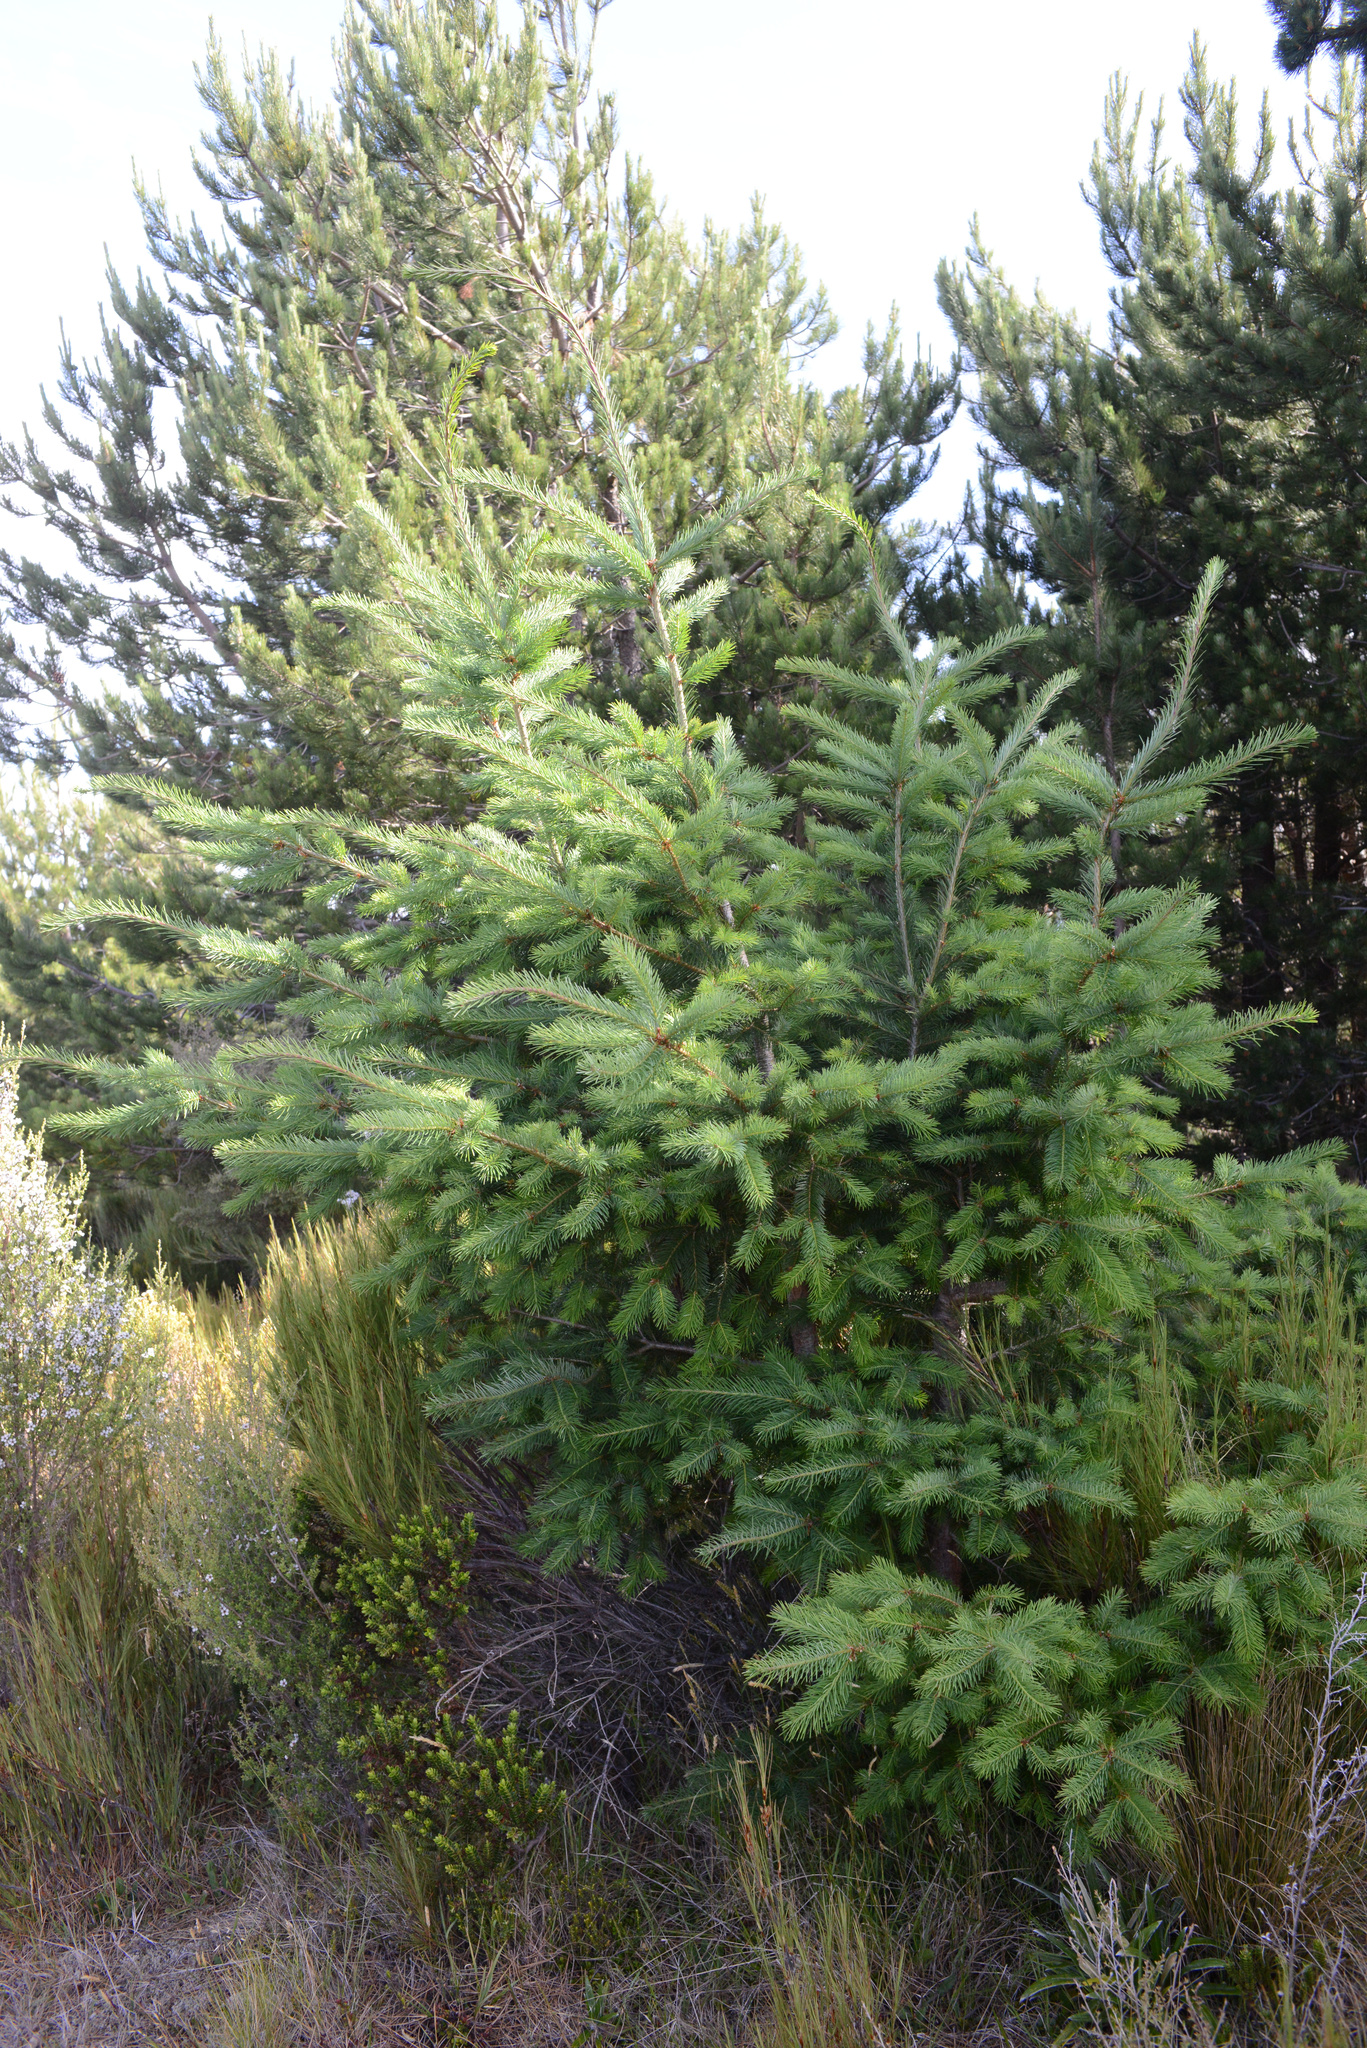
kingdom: Plantae
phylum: Tracheophyta
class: Pinopsida
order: Pinales
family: Pinaceae
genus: Pseudotsuga
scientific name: Pseudotsuga menziesii
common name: Douglas fir
